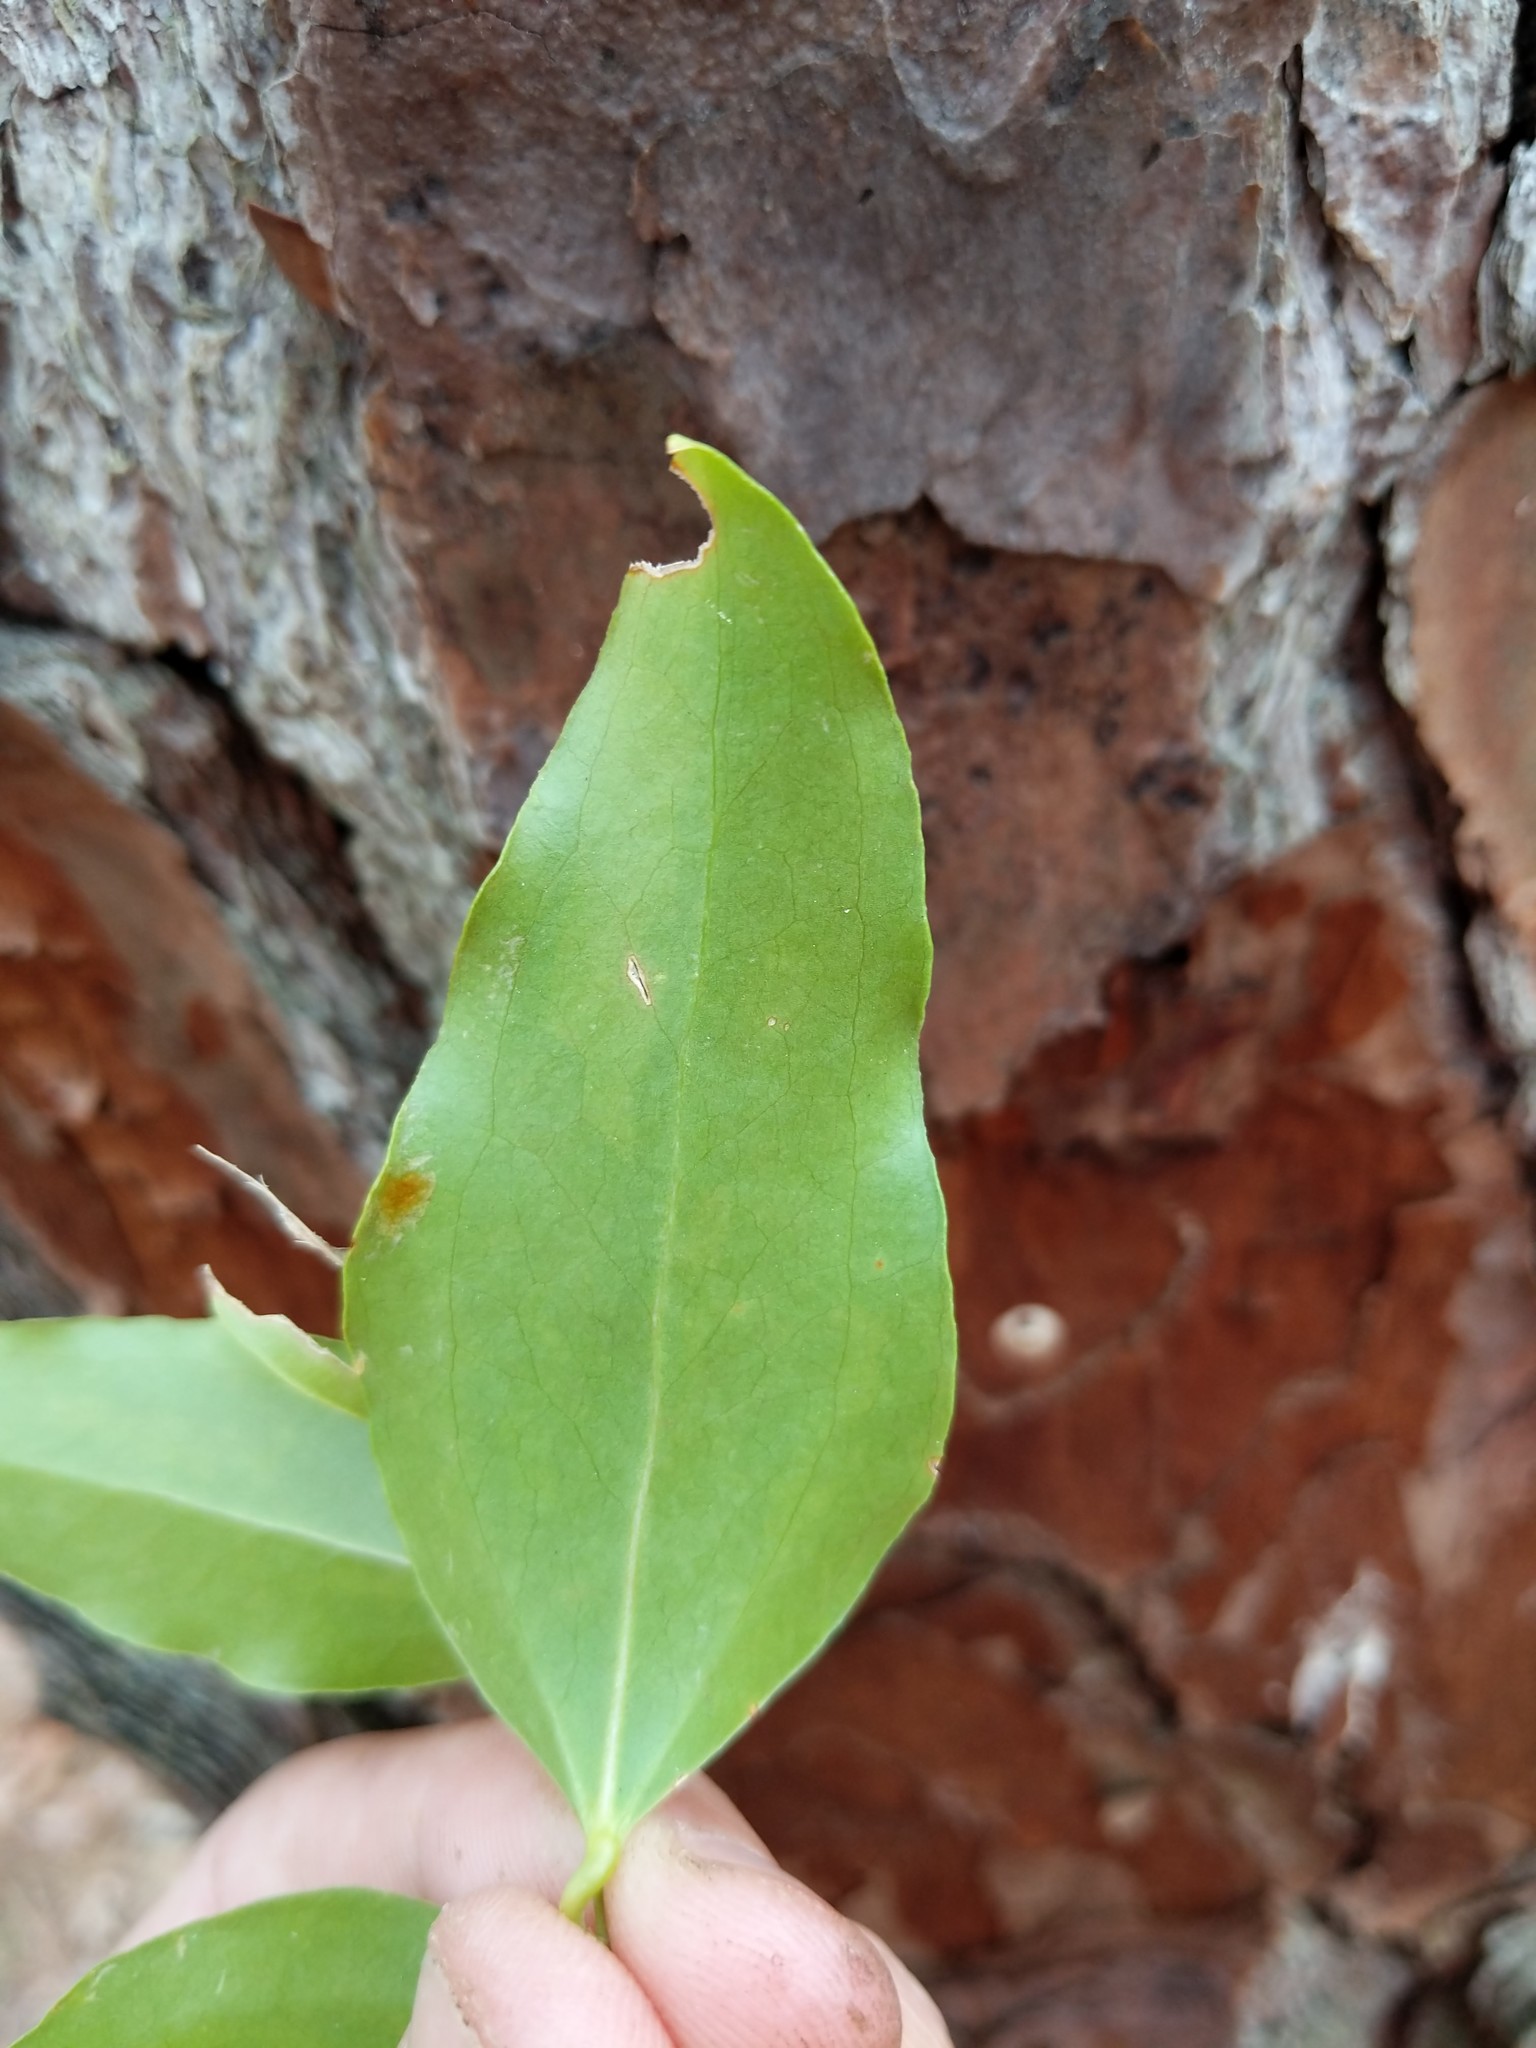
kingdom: Plantae
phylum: Tracheophyta
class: Liliopsida
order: Liliales
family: Smilacaceae
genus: Smilax
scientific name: Smilax maritima
